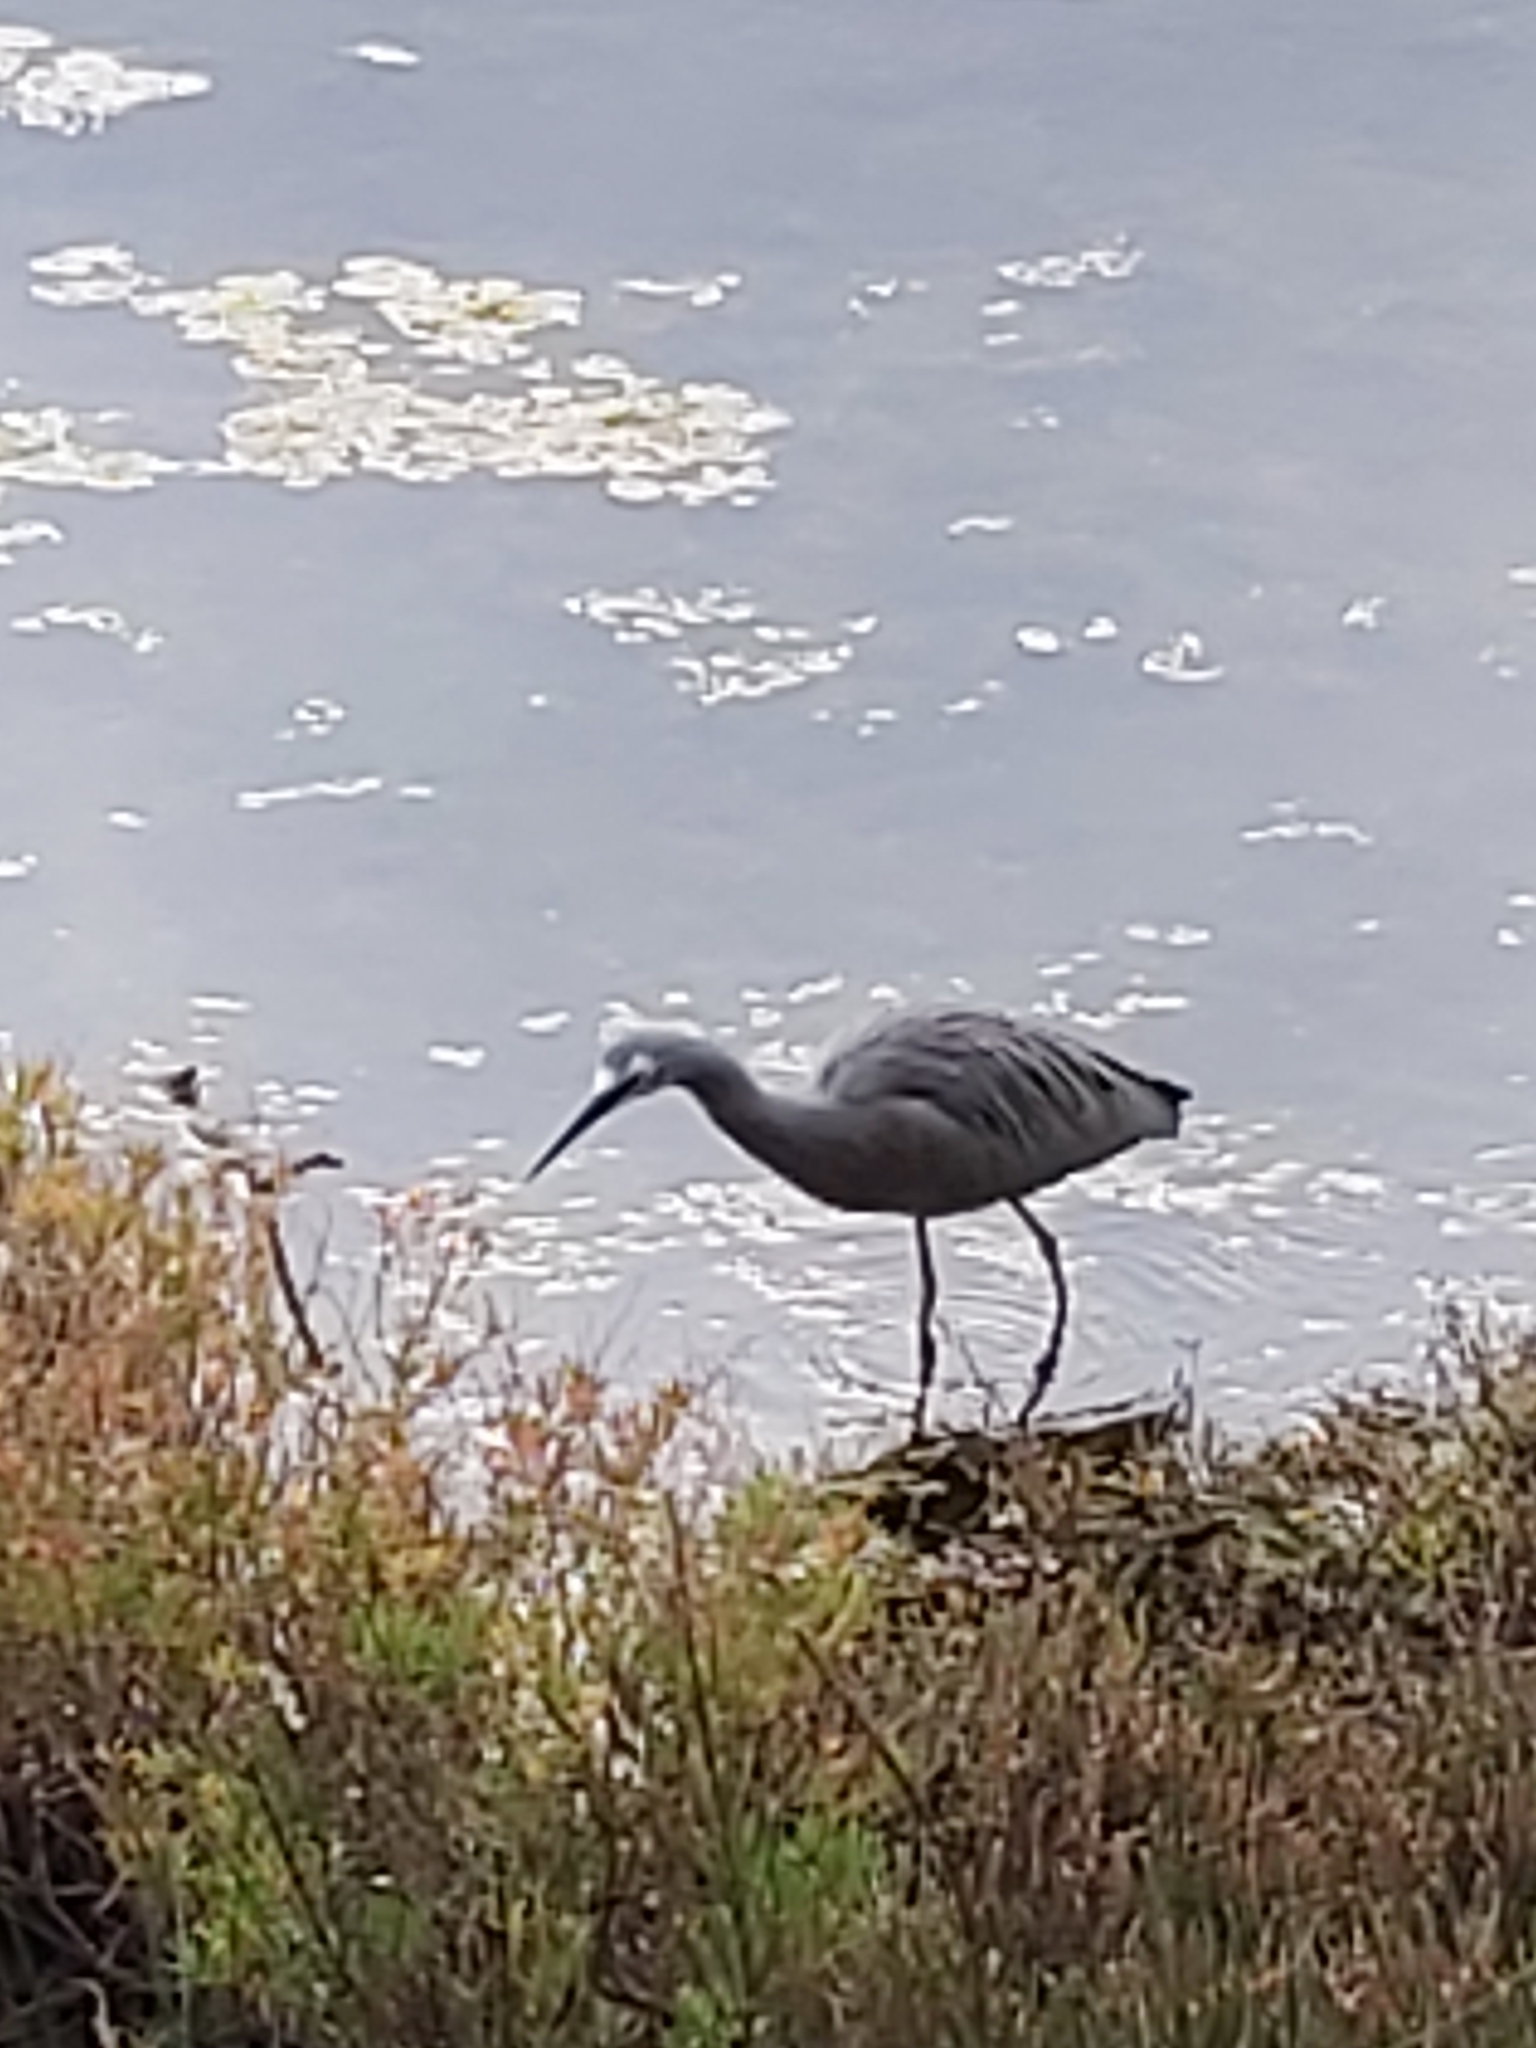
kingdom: Animalia
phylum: Chordata
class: Aves
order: Pelecaniformes
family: Ardeidae
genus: Egretta
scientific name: Egretta novaehollandiae
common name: White-faced heron
